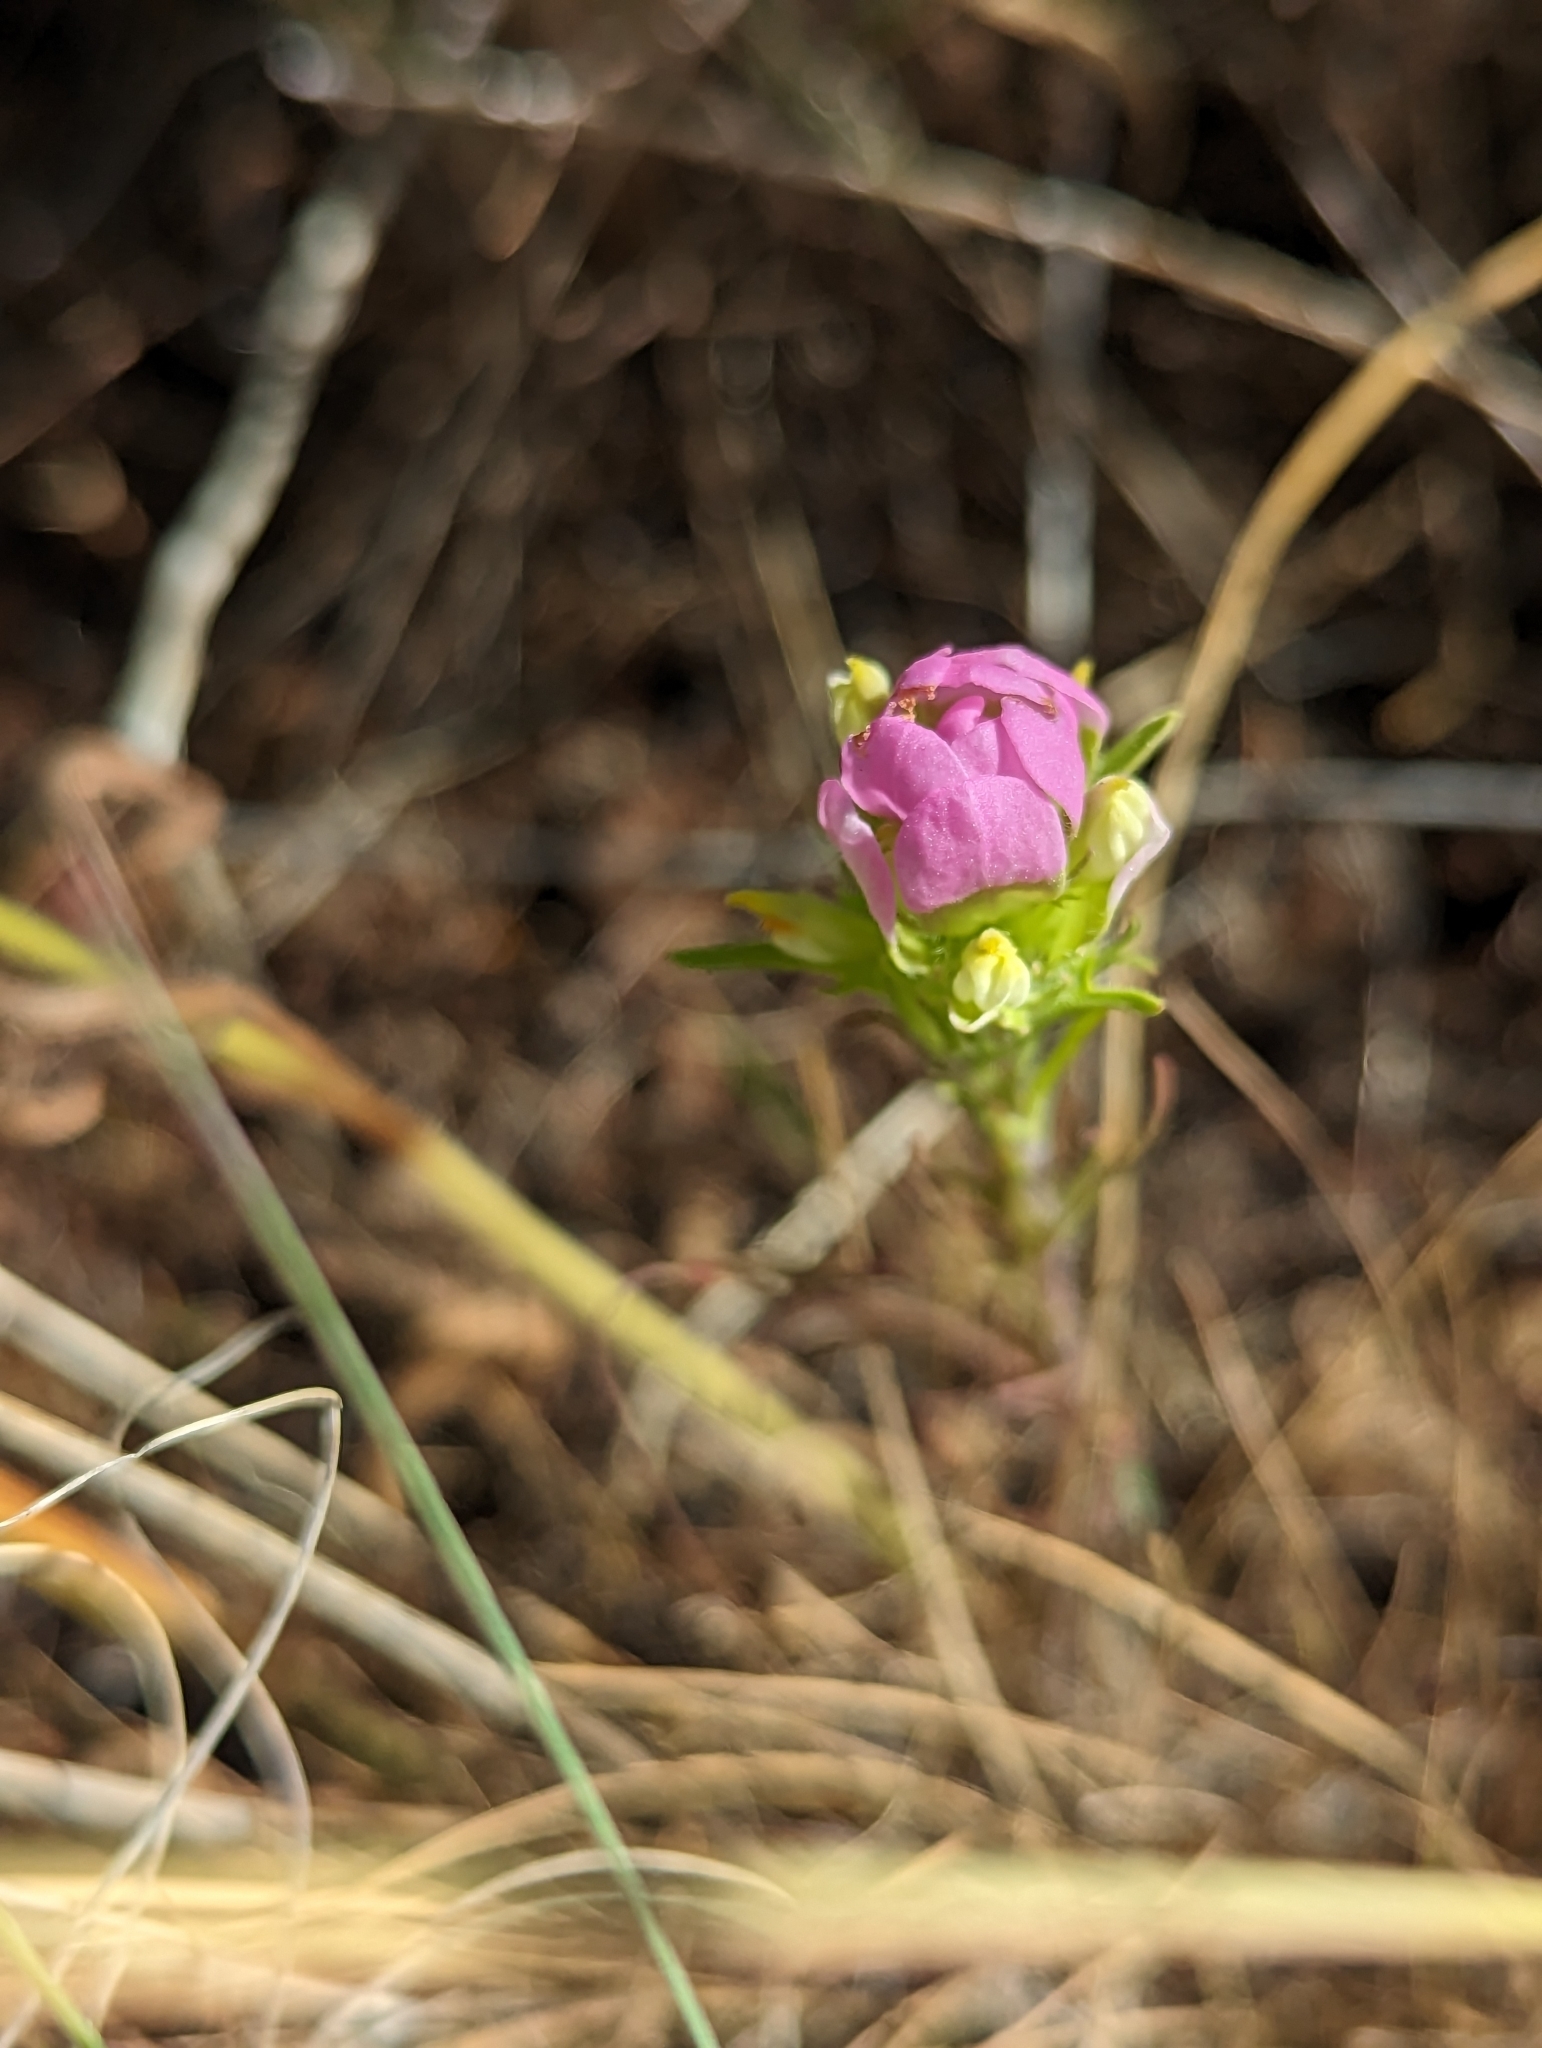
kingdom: Plantae
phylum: Tracheophyta
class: Magnoliopsida
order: Lamiales
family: Orobanchaceae
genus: Orthocarpus
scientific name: Orthocarpus tenuifolius
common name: Thin-leaved owl's-clover
